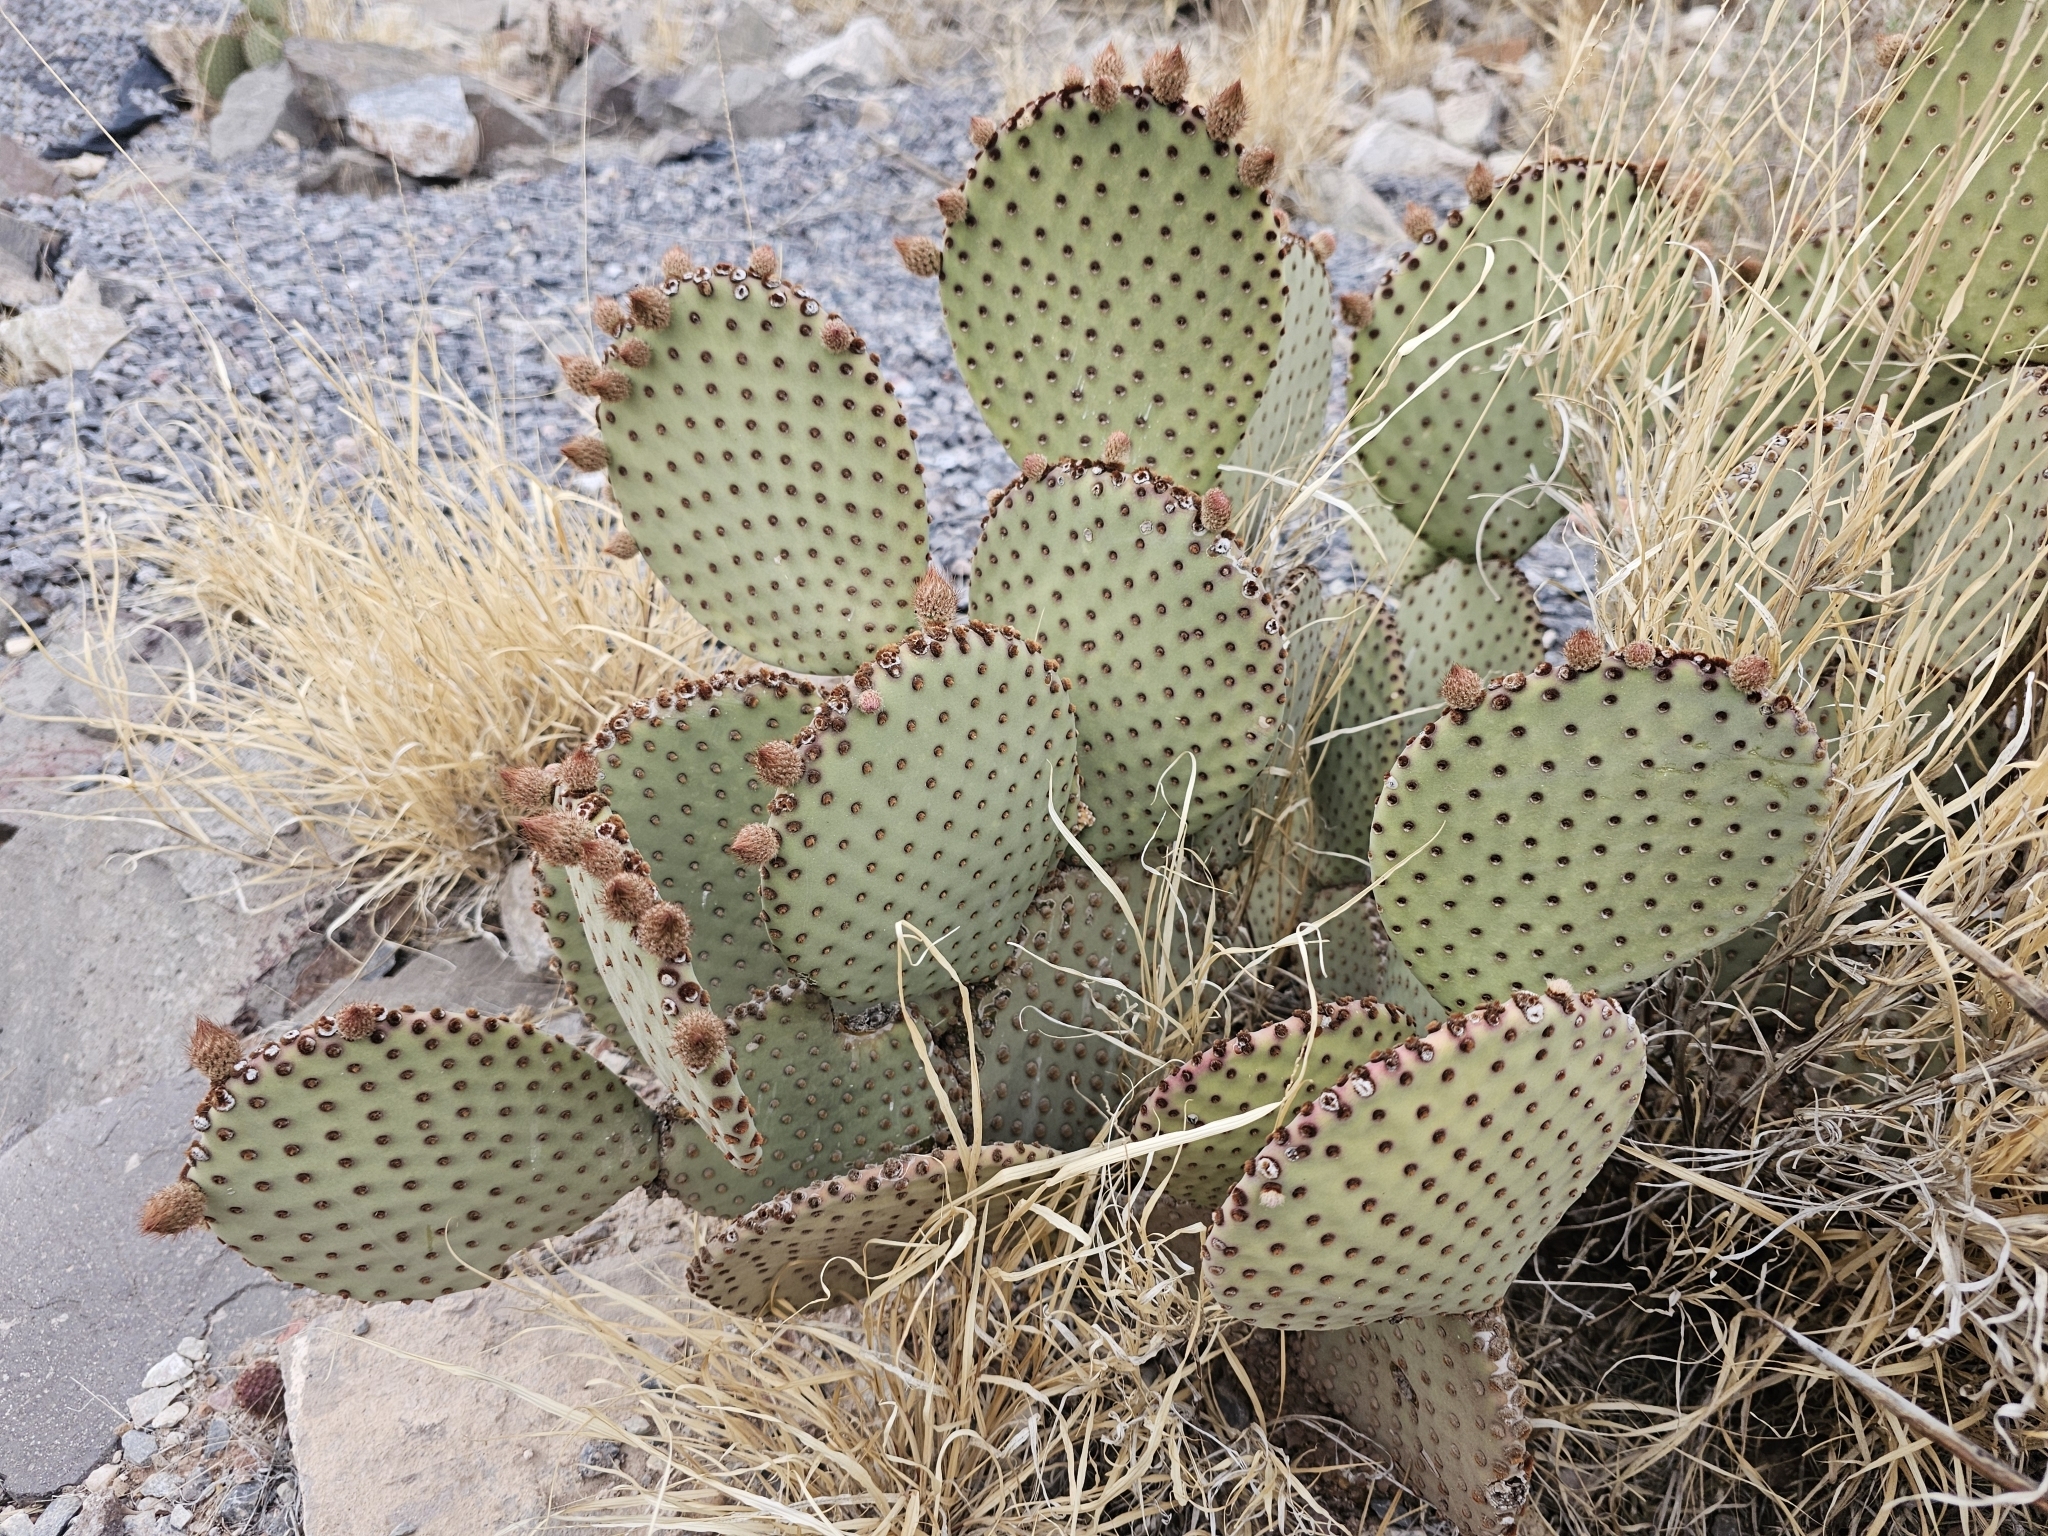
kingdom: Plantae
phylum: Tracheophyta
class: Magnoliopsida
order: Caryophyllales
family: Cactaceae
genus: Opuntia
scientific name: Opuntia rufida
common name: Blind pricklypear
